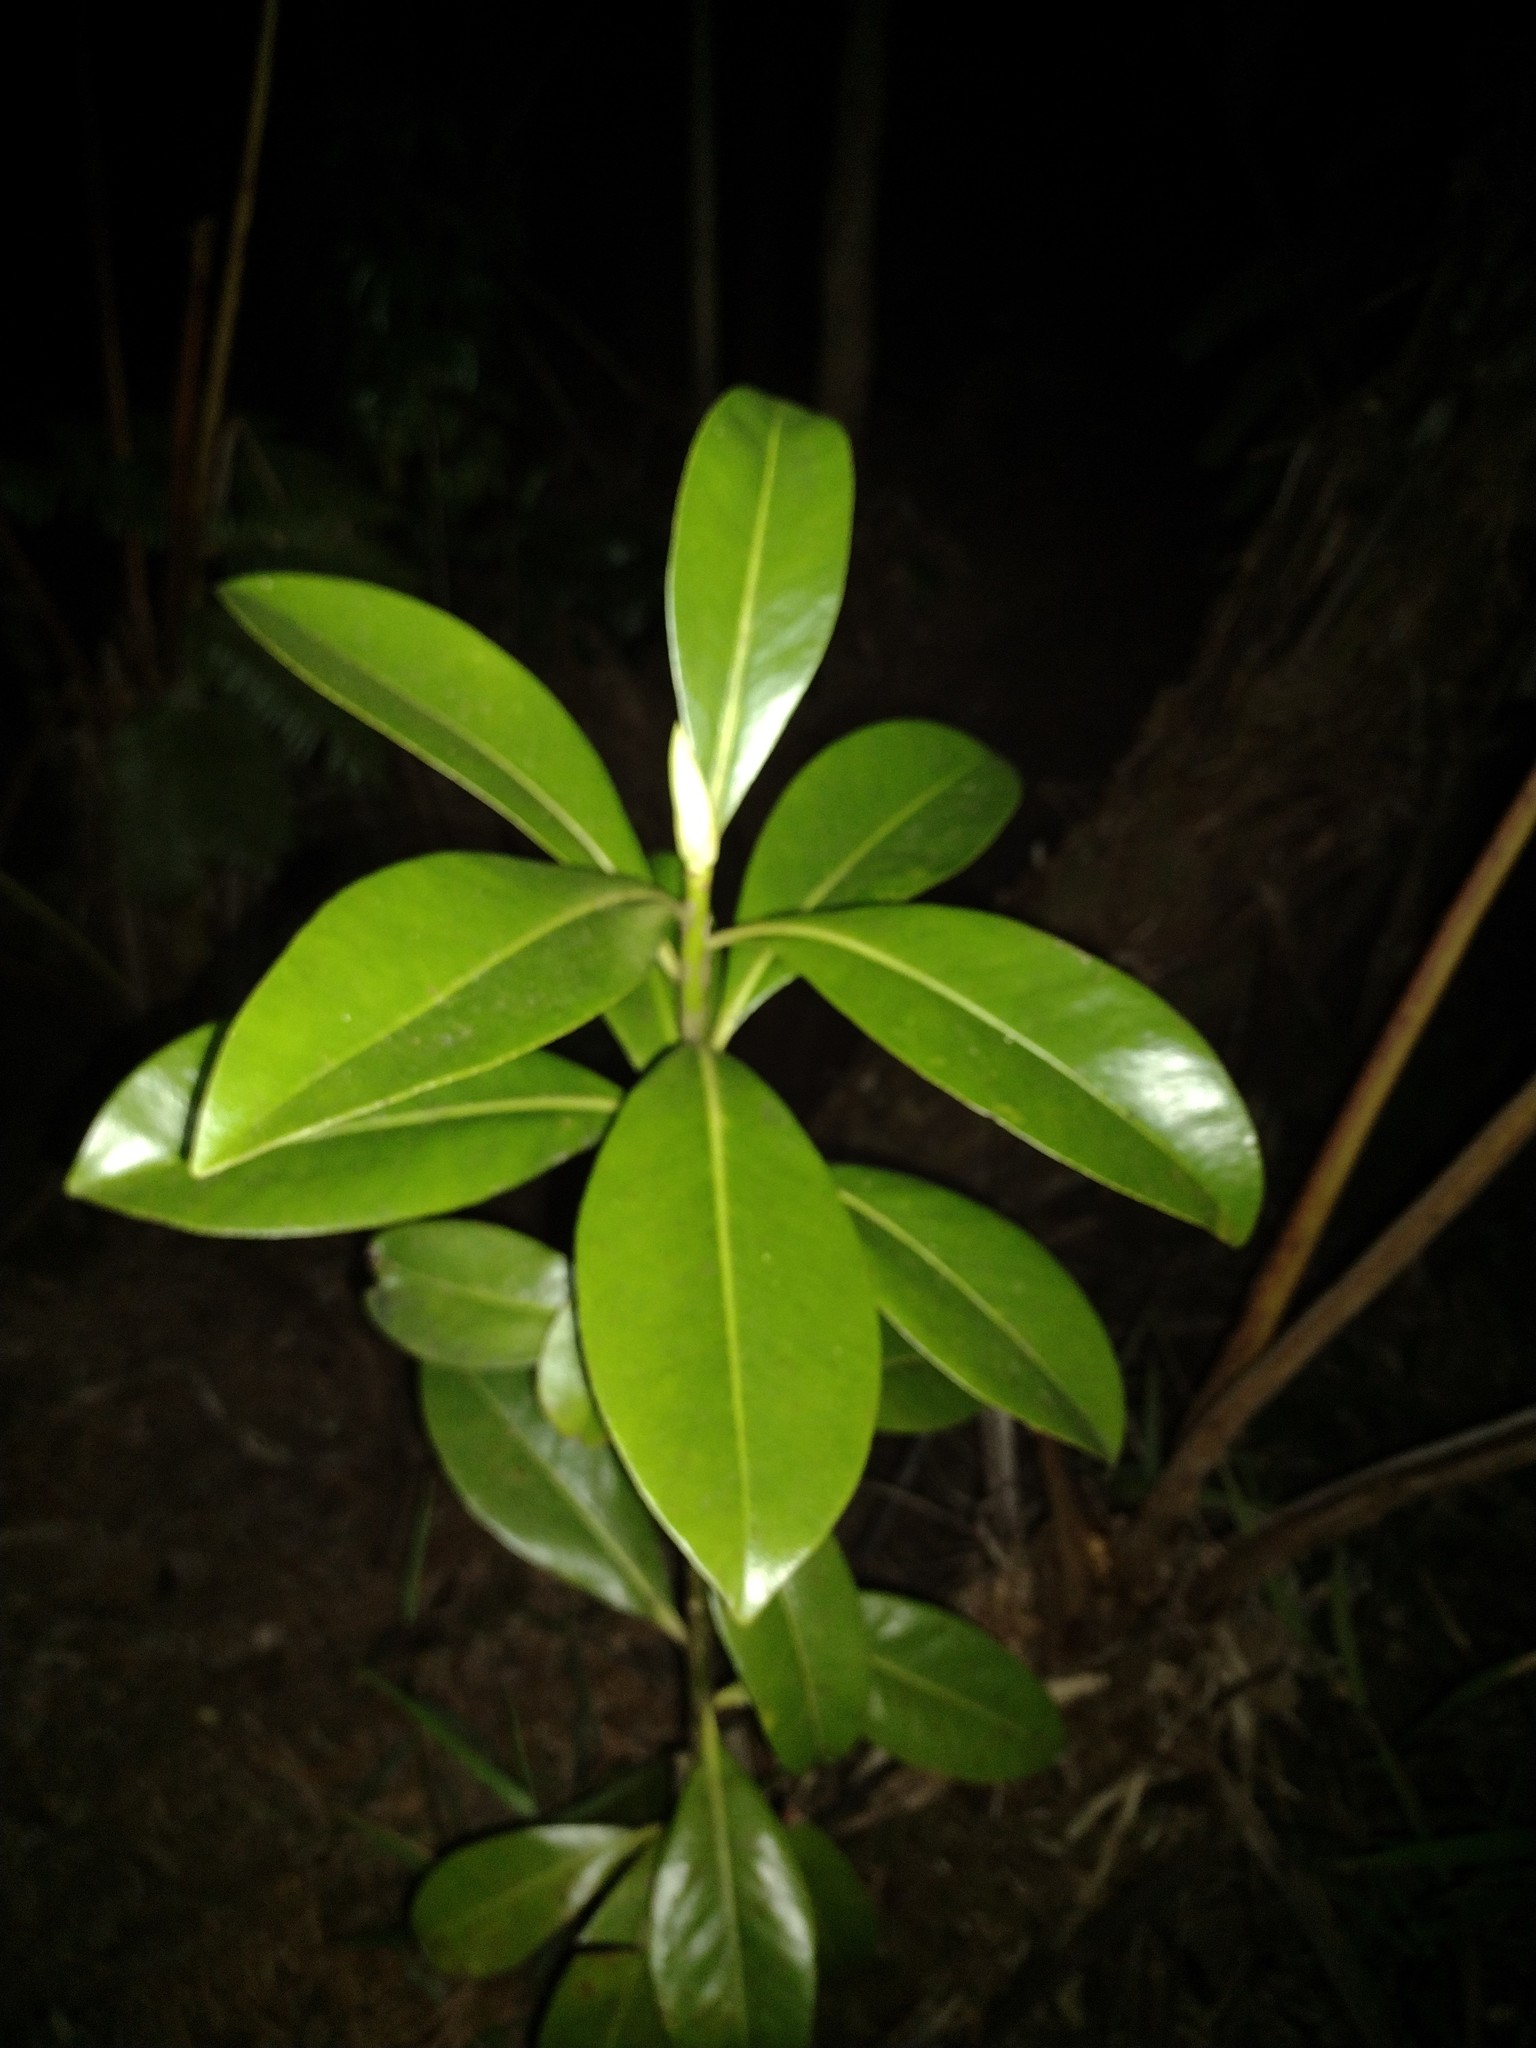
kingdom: Plantae
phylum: Tracheophyta
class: Magnoliopsida
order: Ericales
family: Primulaceae
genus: Myrsine
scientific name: Myrsine lessertiana
